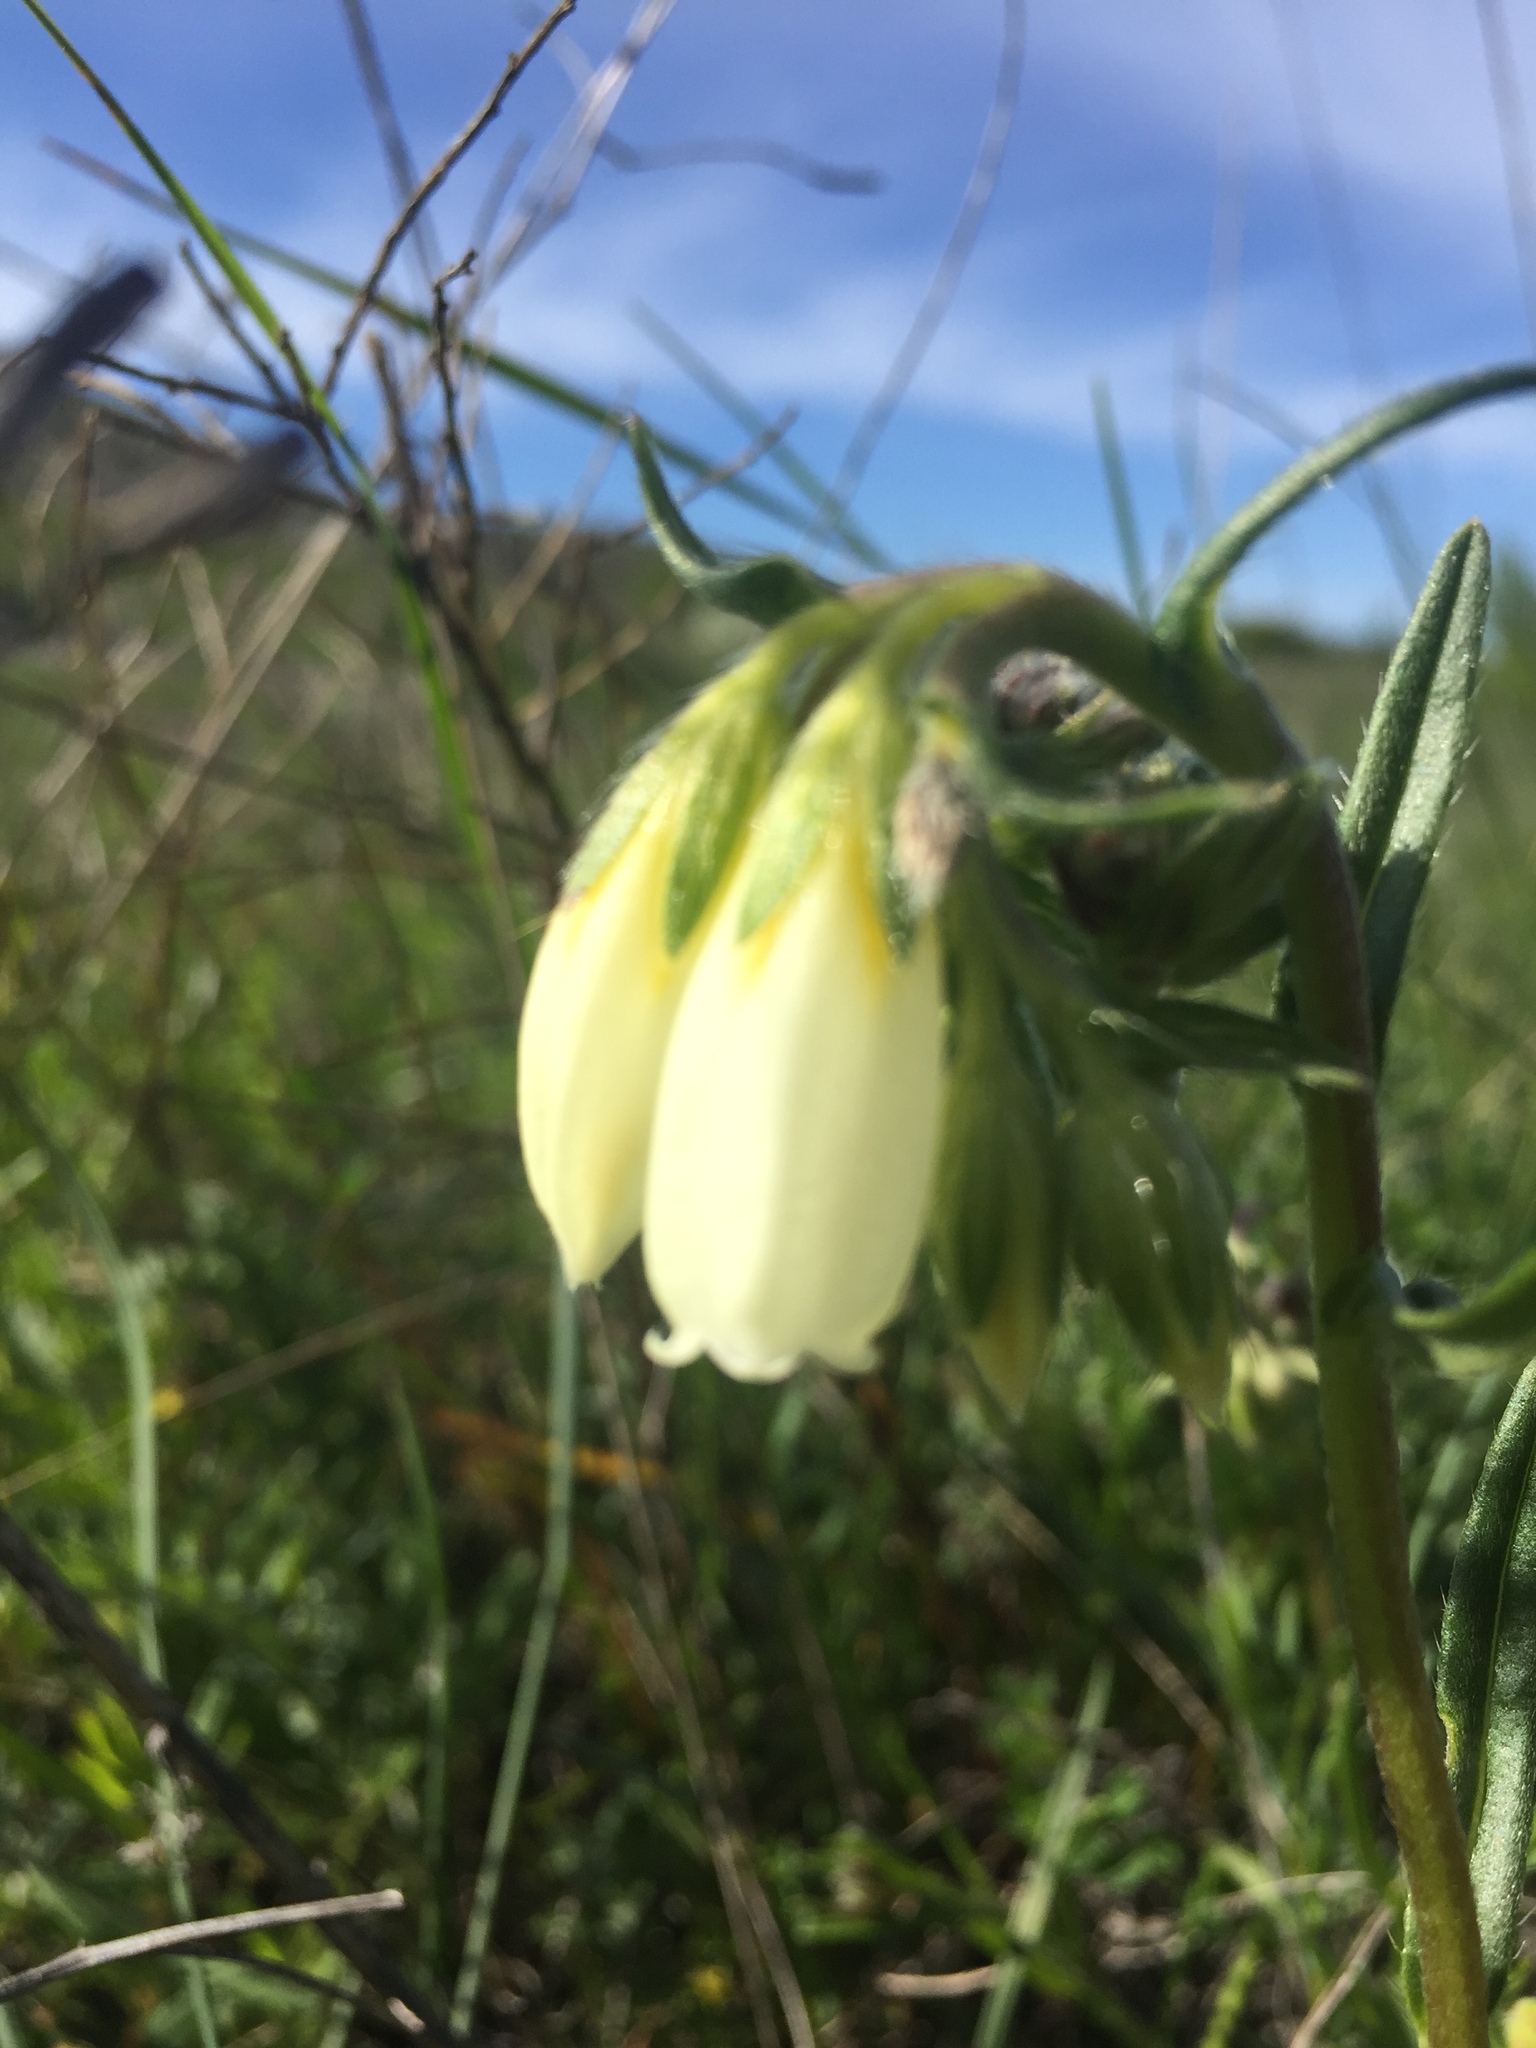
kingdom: Plantae
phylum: Tracheophyta
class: Magnoliopsida
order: Boraginales
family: Boraginaceae
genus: Onosma
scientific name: Onosma simplicissima
